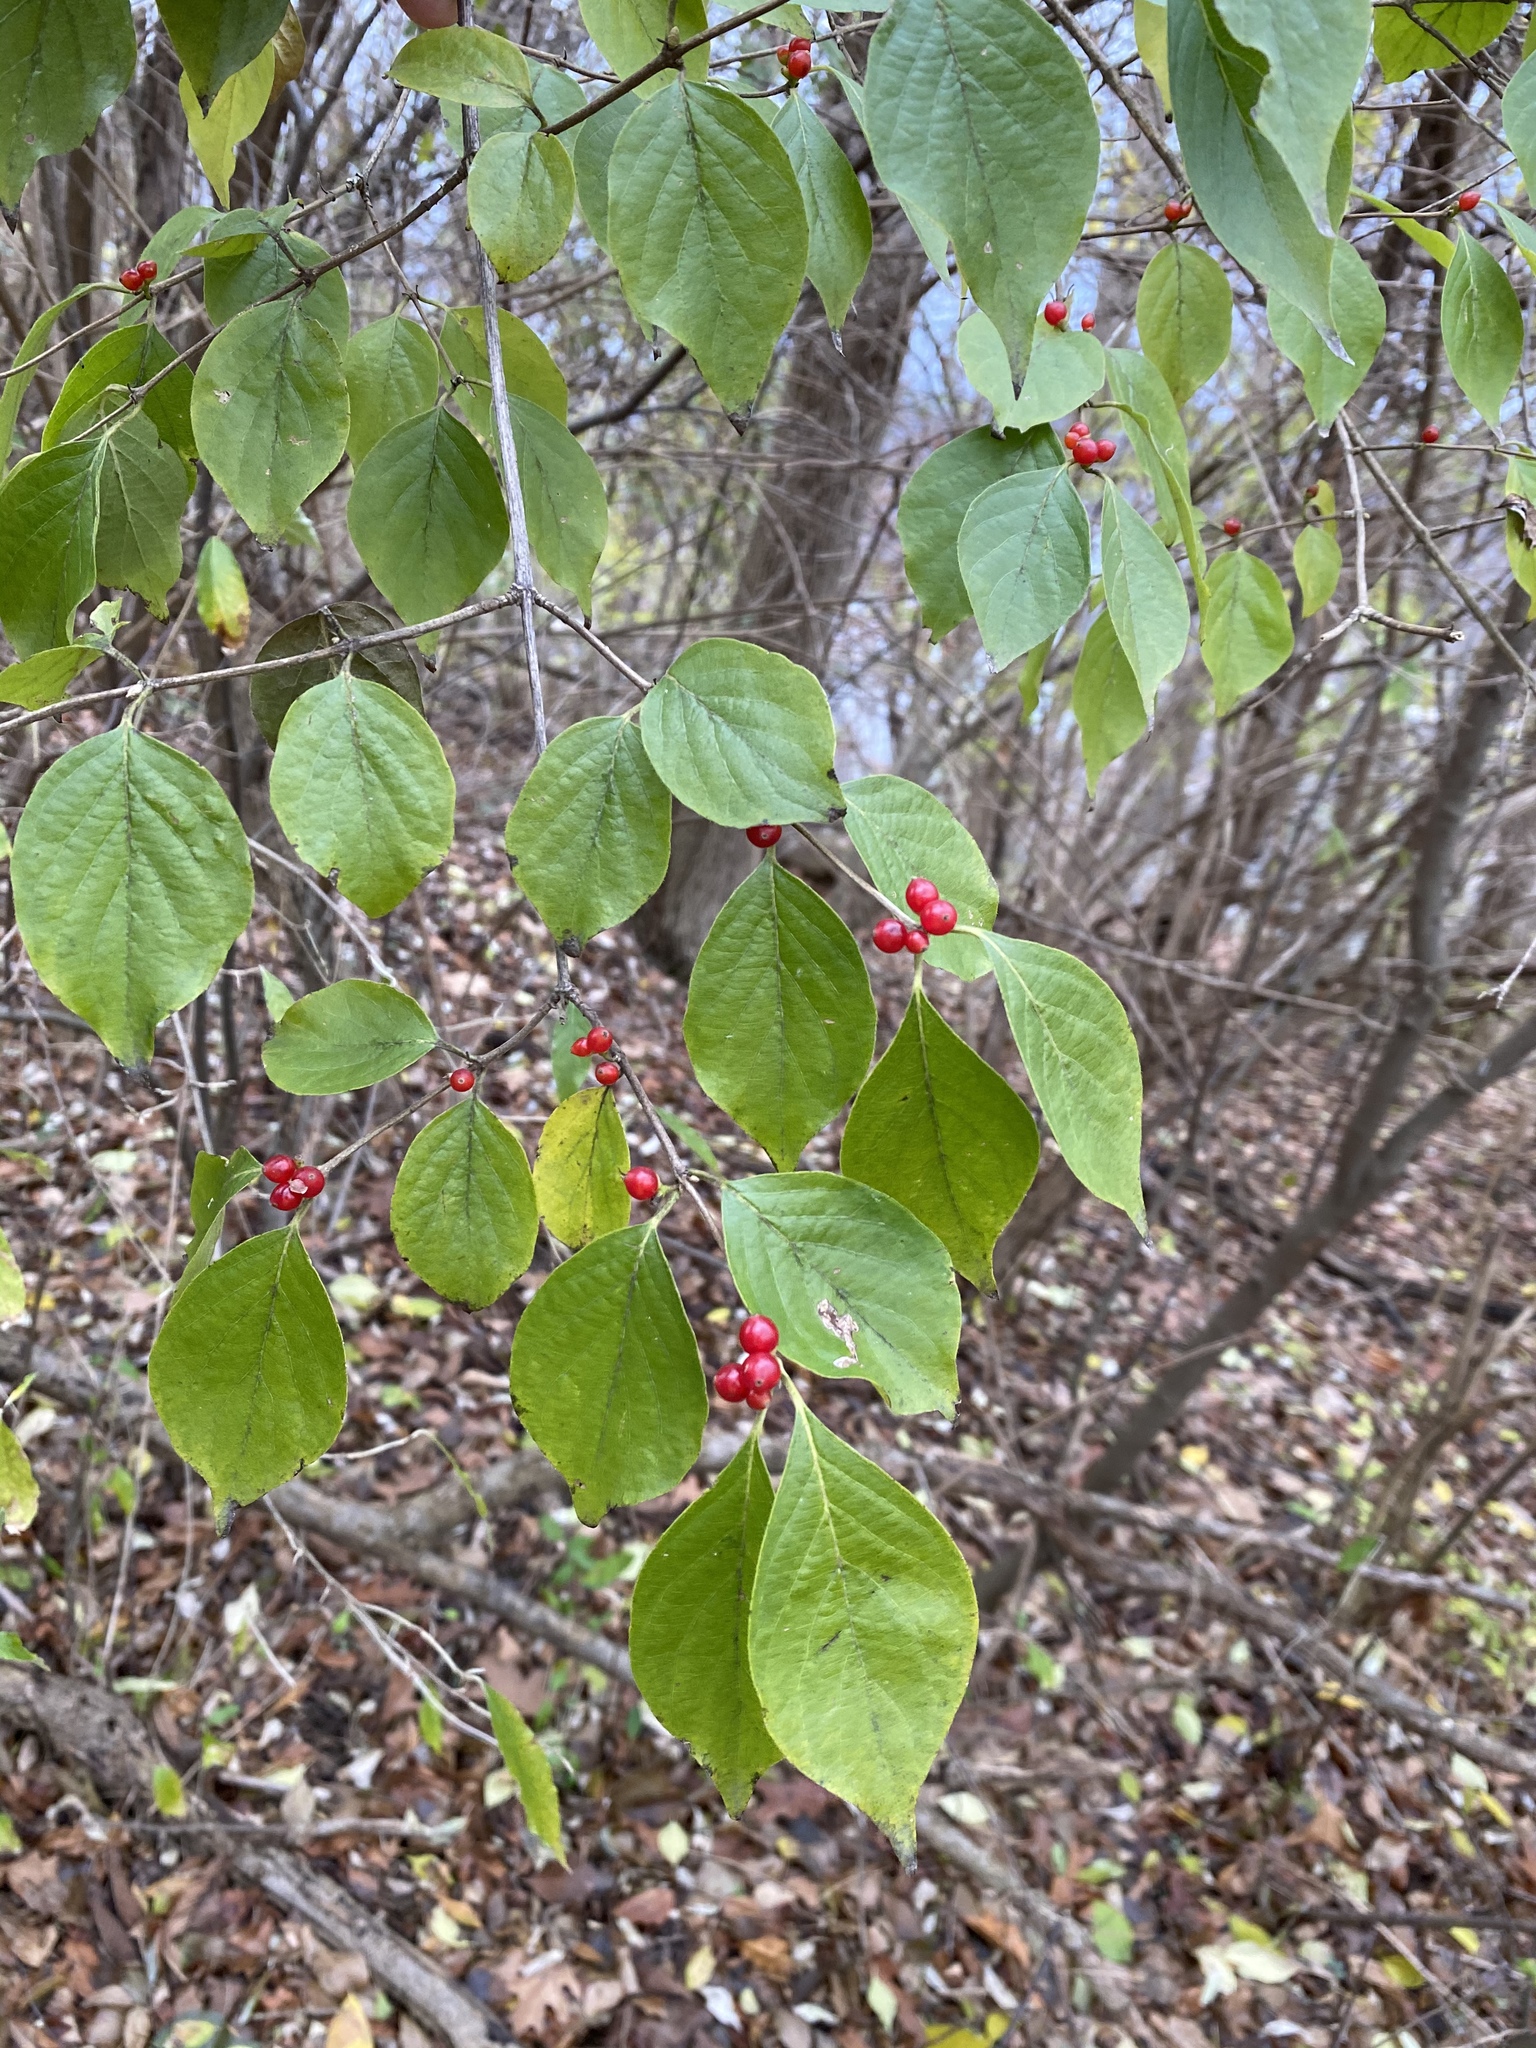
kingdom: Plantae
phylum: Tracheophyta
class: Magnoliopsida
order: Dipsacales
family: Caprifoliaceae
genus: Lonicera
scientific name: Lonicera maackii
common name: Amur honeysuckle
